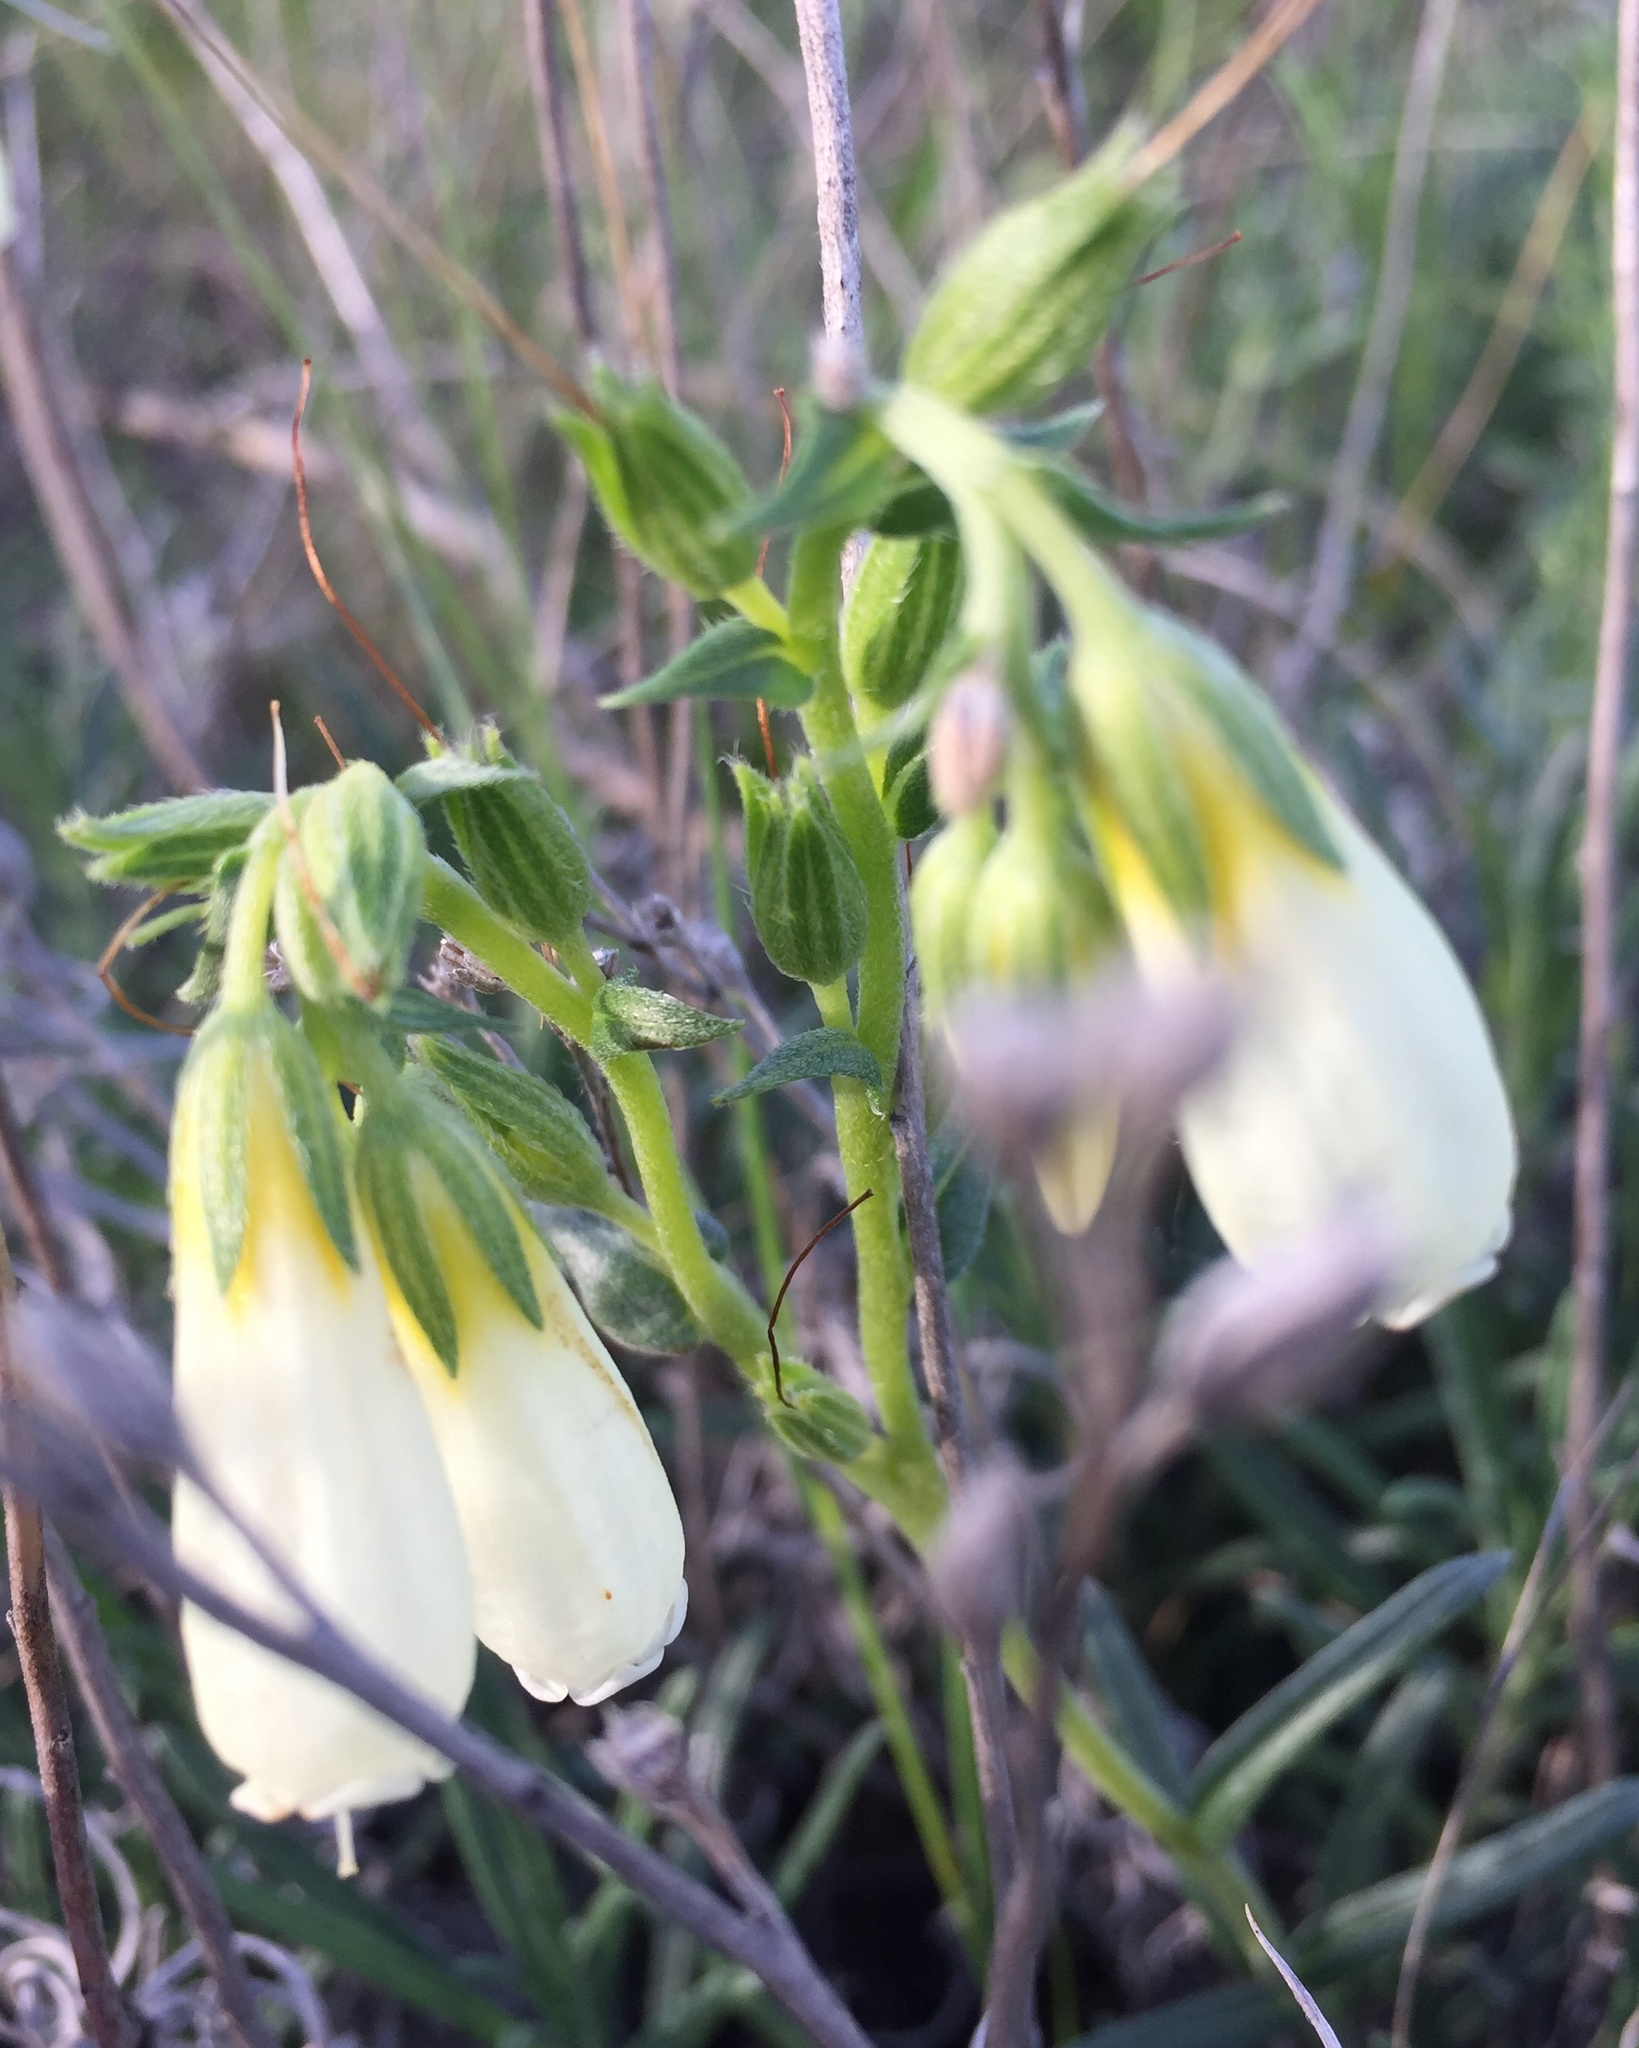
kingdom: Plantae
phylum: Tracheophyta
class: Magnoliopsida
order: Boraginales
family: Boraginaceae
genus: Onosma
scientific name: Onosma simplicissima
